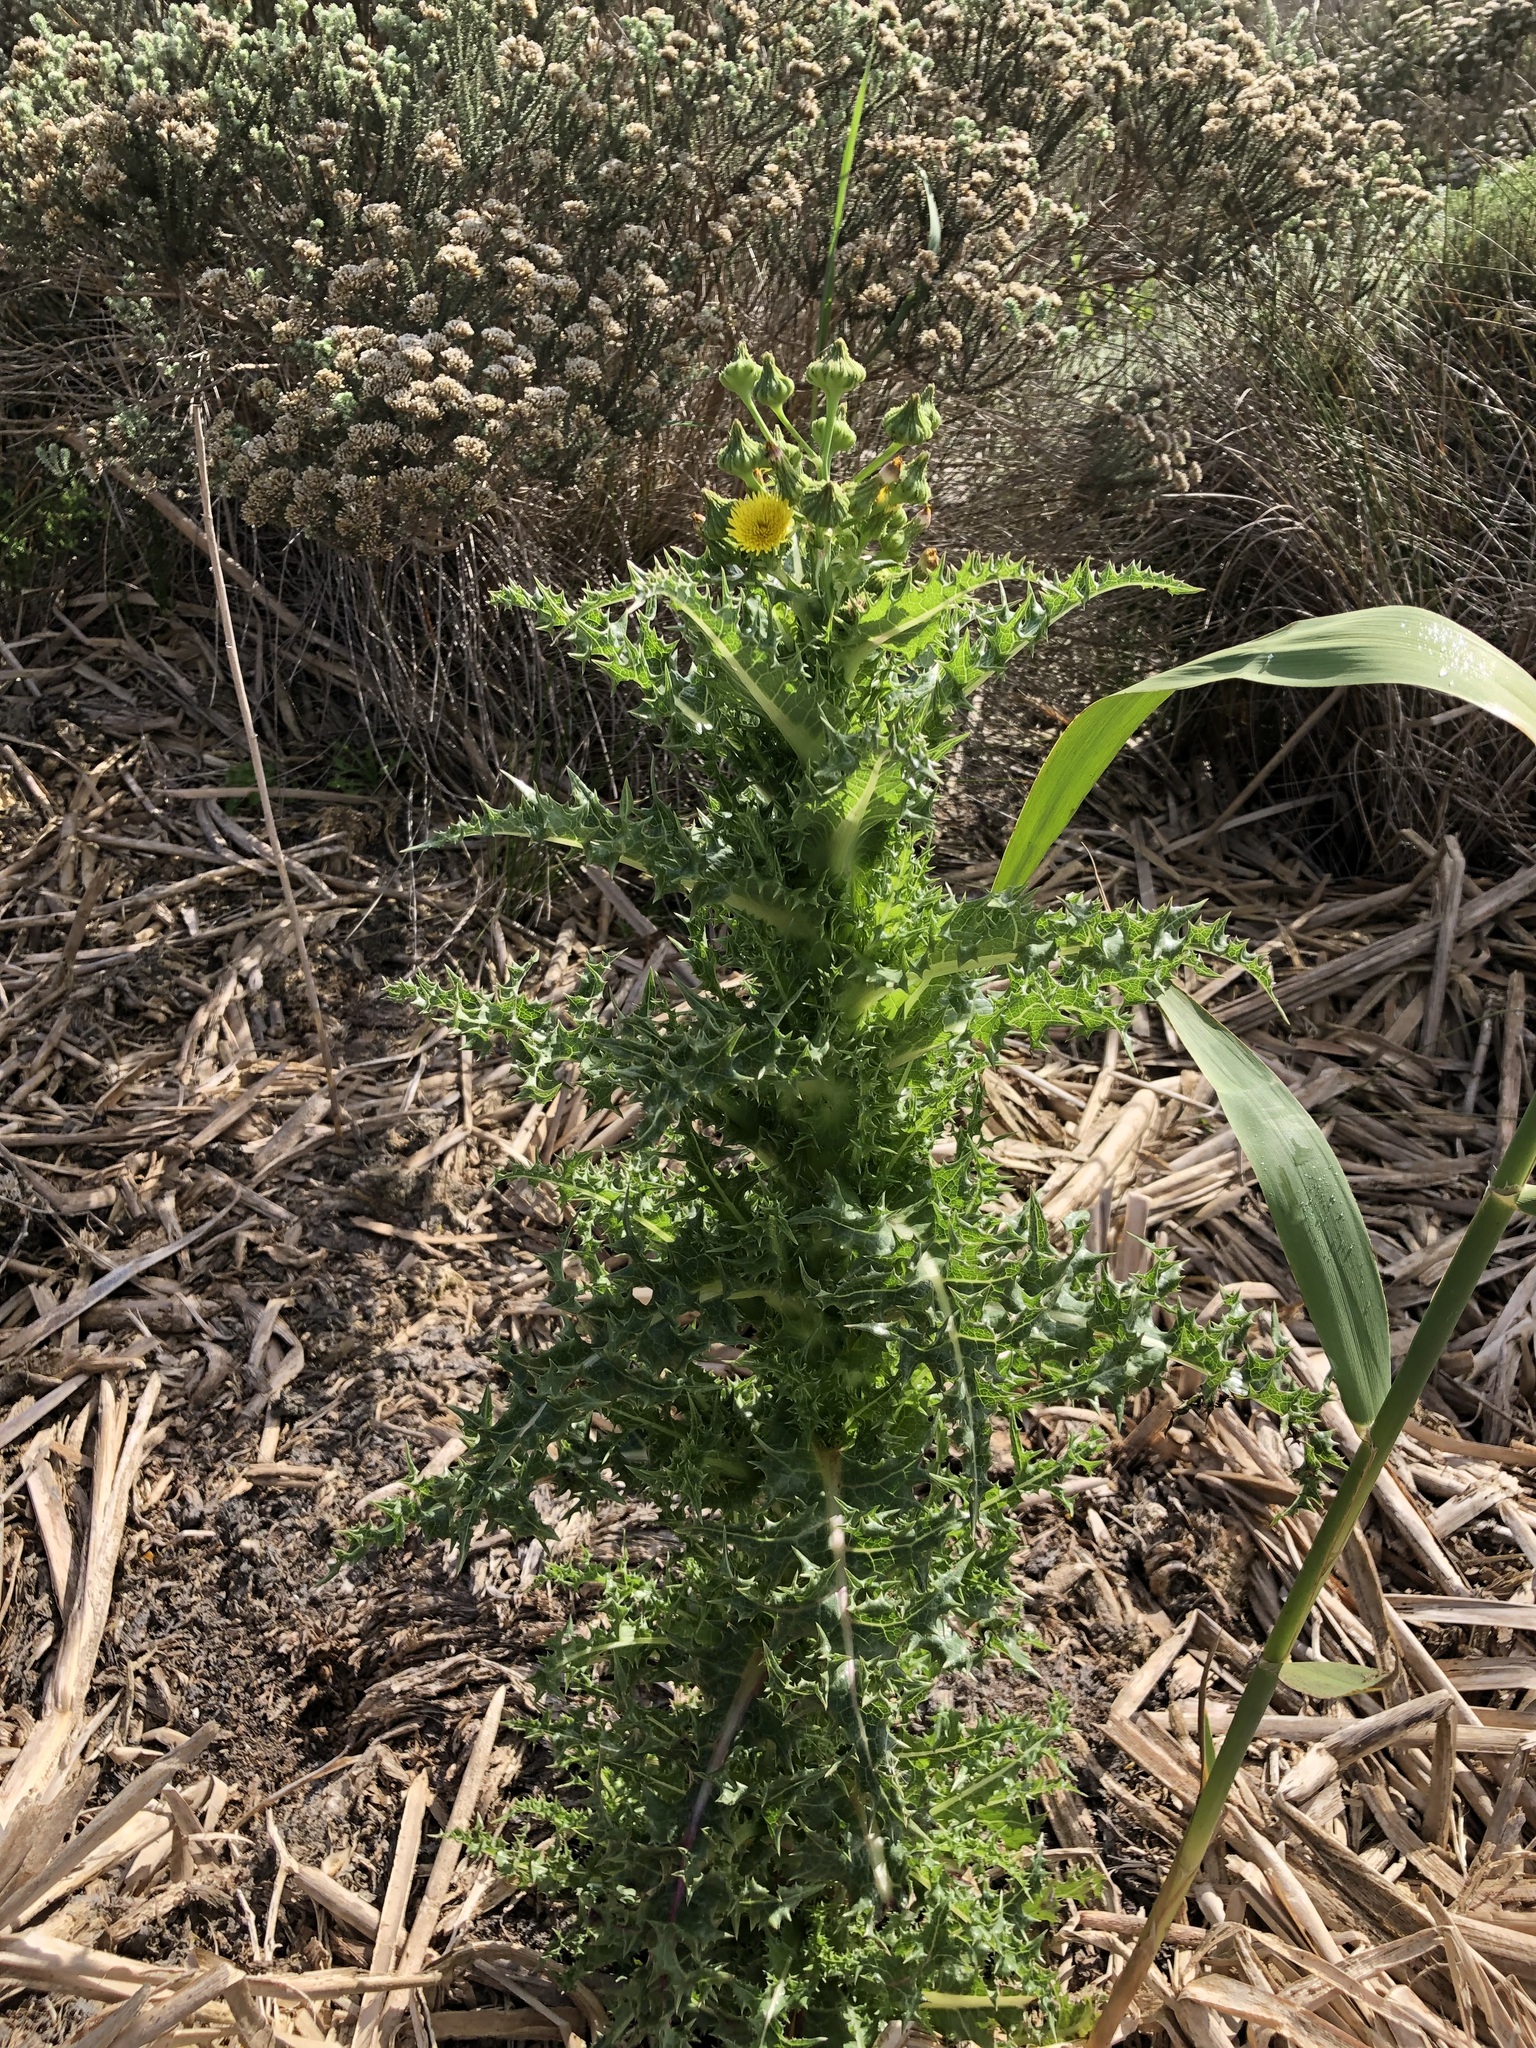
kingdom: Plantae
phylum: Tracheophyta
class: Magnoliopsida
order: Asterales
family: Asteraceae
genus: Sonchus
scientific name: Sonchus asper
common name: Prickly sow-thistle
